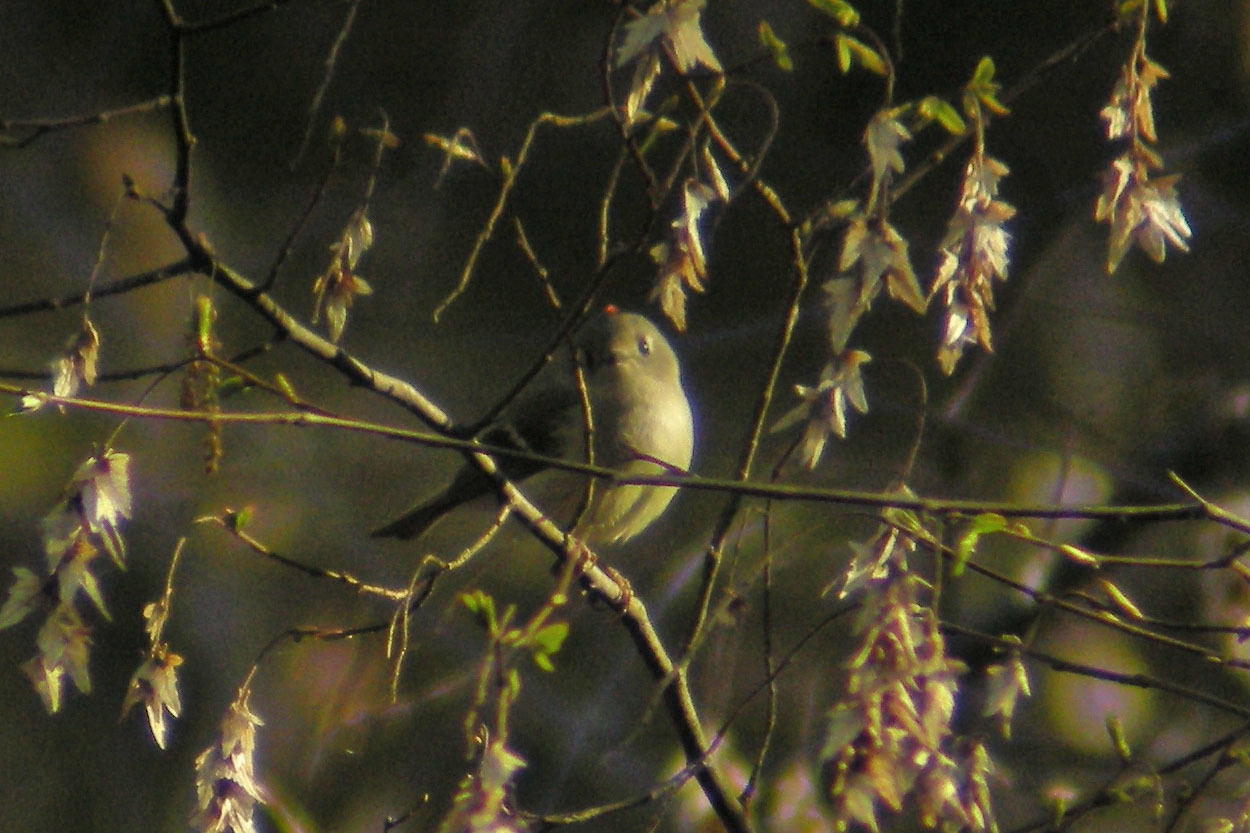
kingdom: Animalia
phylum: Chordata
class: Aves
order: Passeriformes
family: Regulidae
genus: Regulus
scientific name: Regulus calendula
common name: Ruby-crowned kinglet
